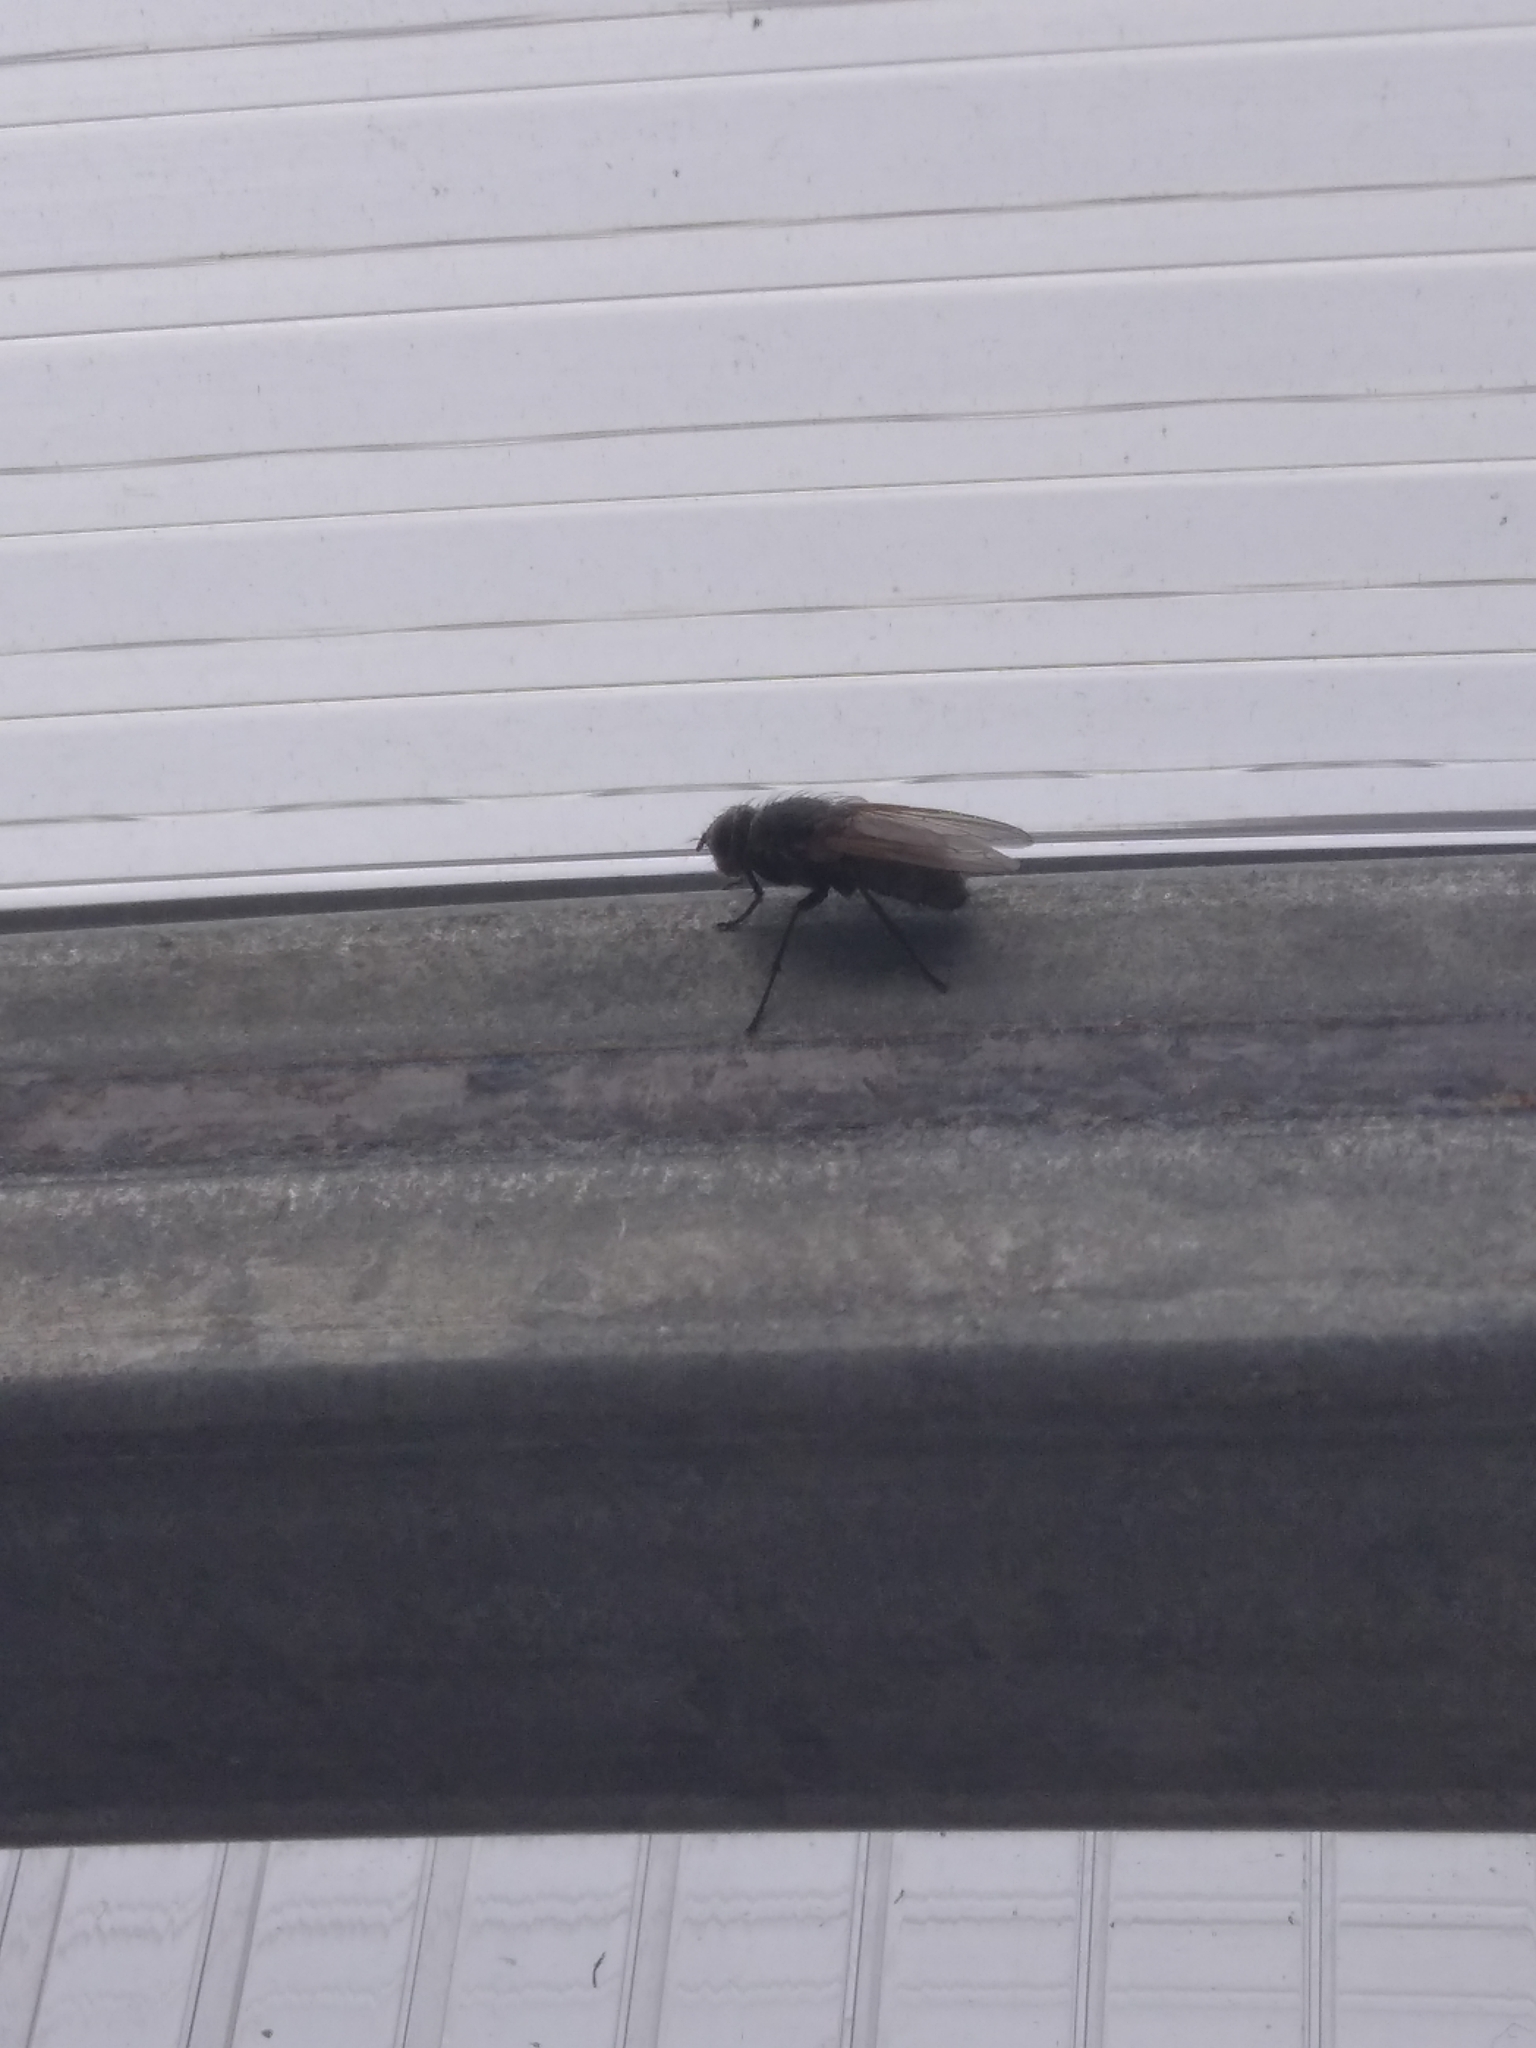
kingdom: Animalia
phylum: Arthropoda
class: Insecta
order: Diptera
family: Polleniidae
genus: Pollenia
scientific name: Pollenia
